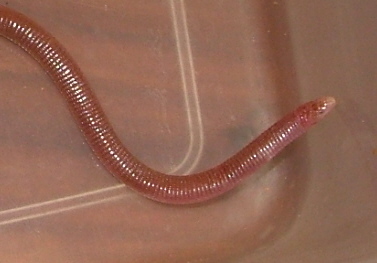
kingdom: Animalia
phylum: Chordata
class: Squamata
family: Amphisbaenidae
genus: Zygaspis
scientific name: Zygaspis quadrifrons
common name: Kalahari dwarf worm lizard
